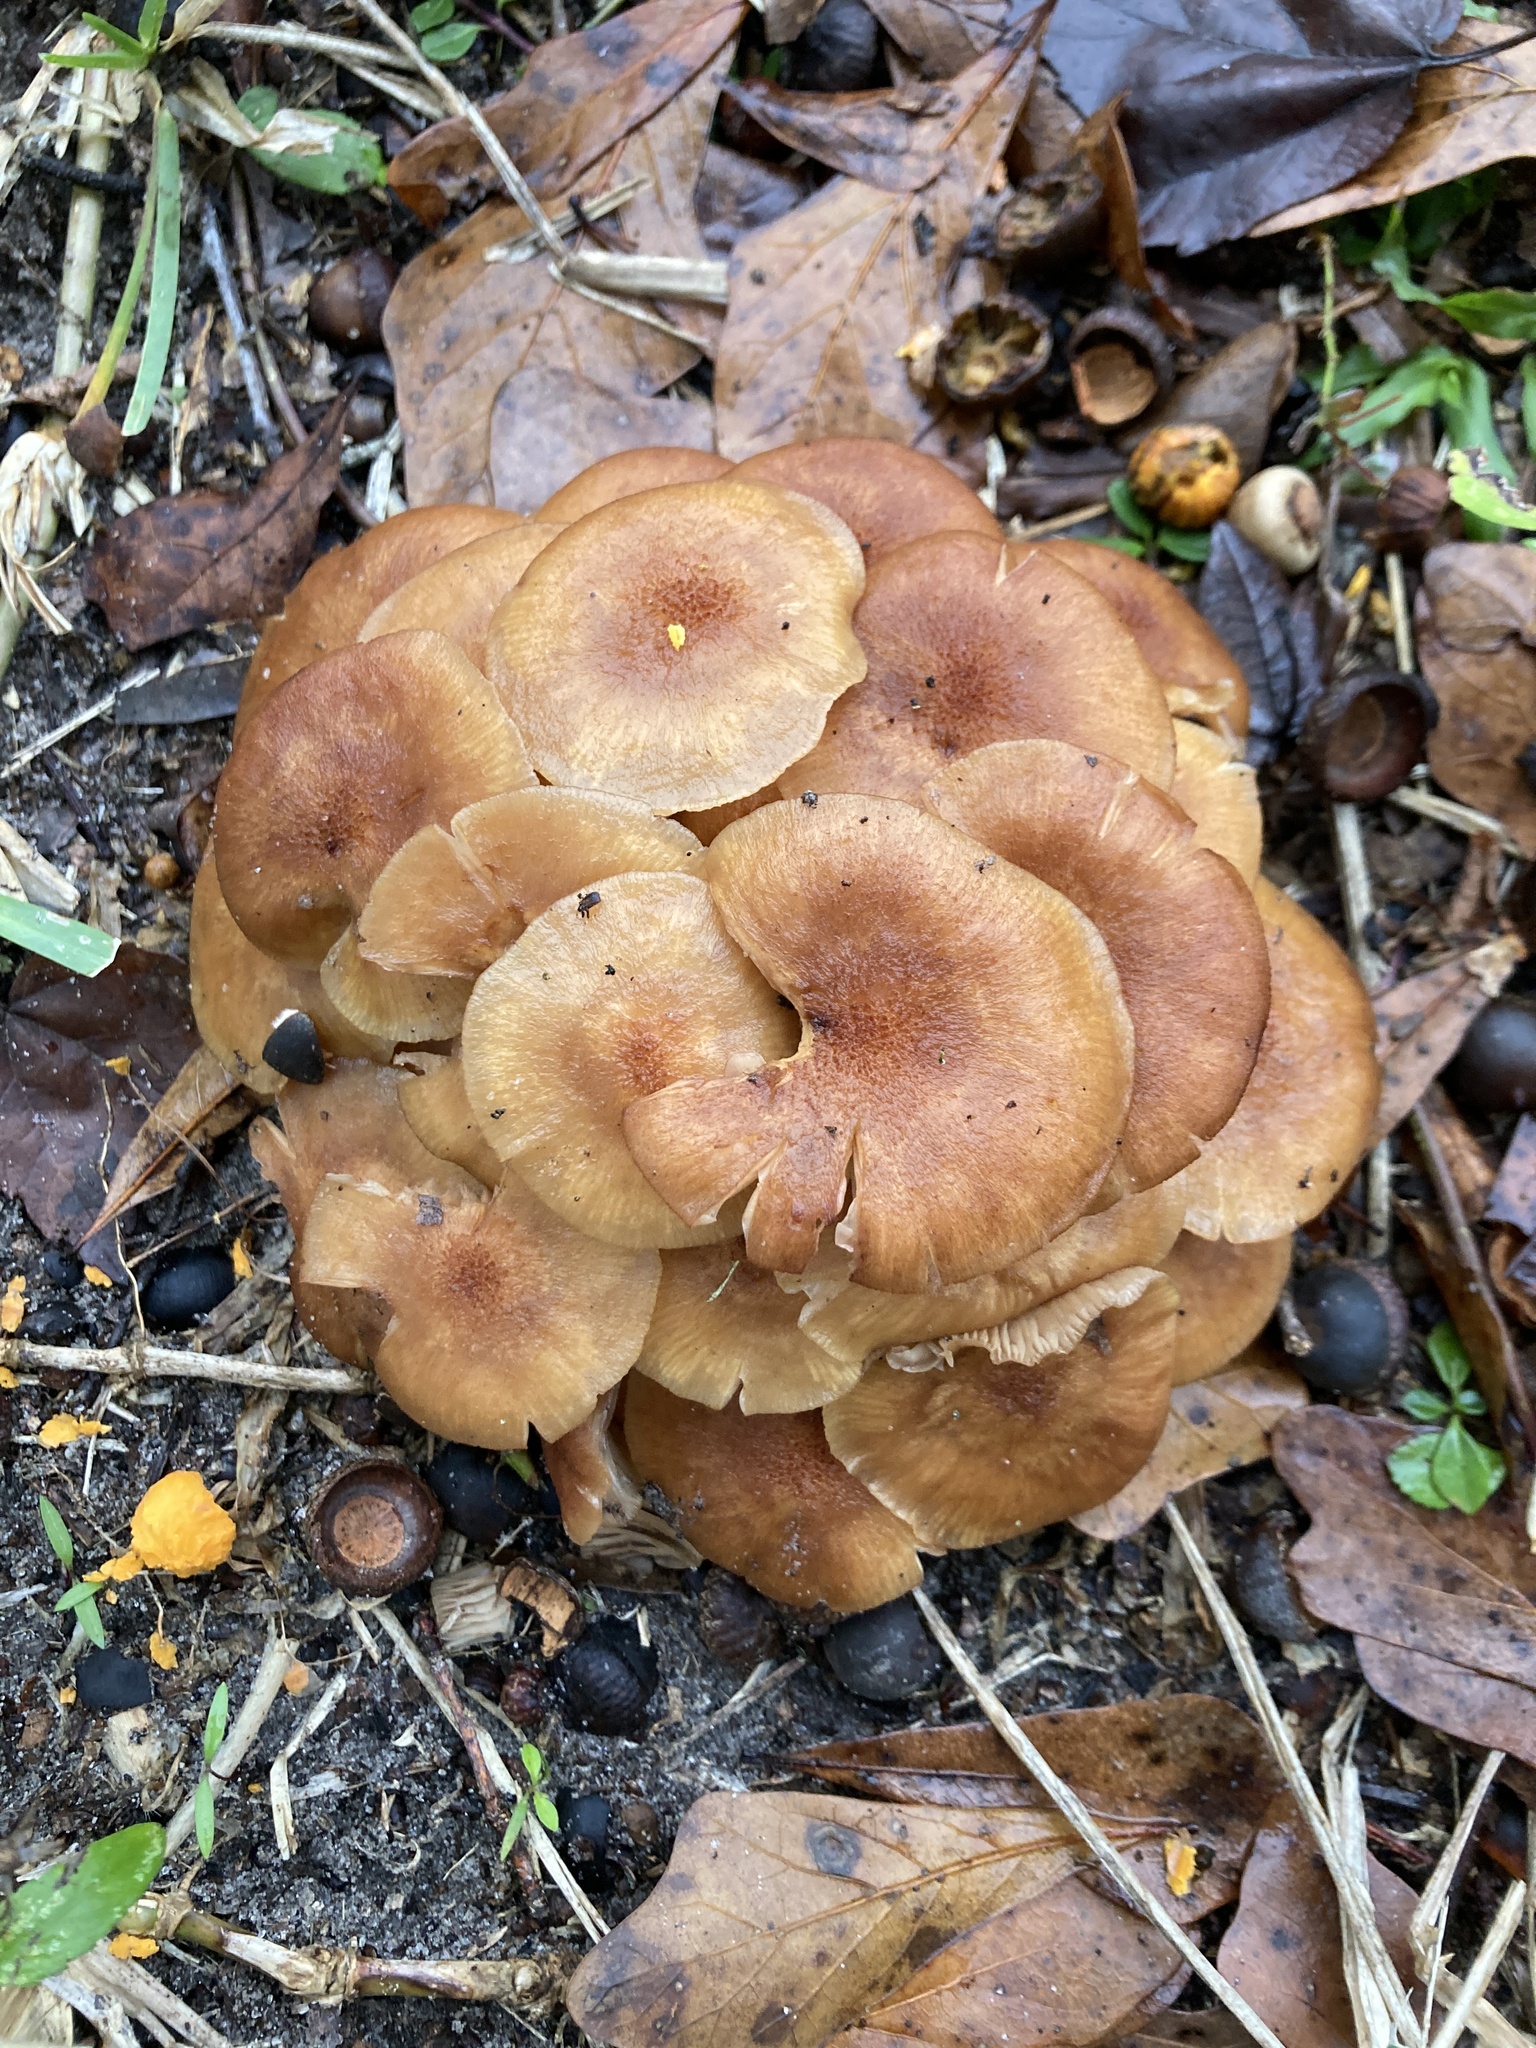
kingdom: Fungi
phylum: Basidiomycota
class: Agaricomycetes
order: Agaricales
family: Physalacriaceae
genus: Desarmillaria
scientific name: Desarmillaria caespitosa
